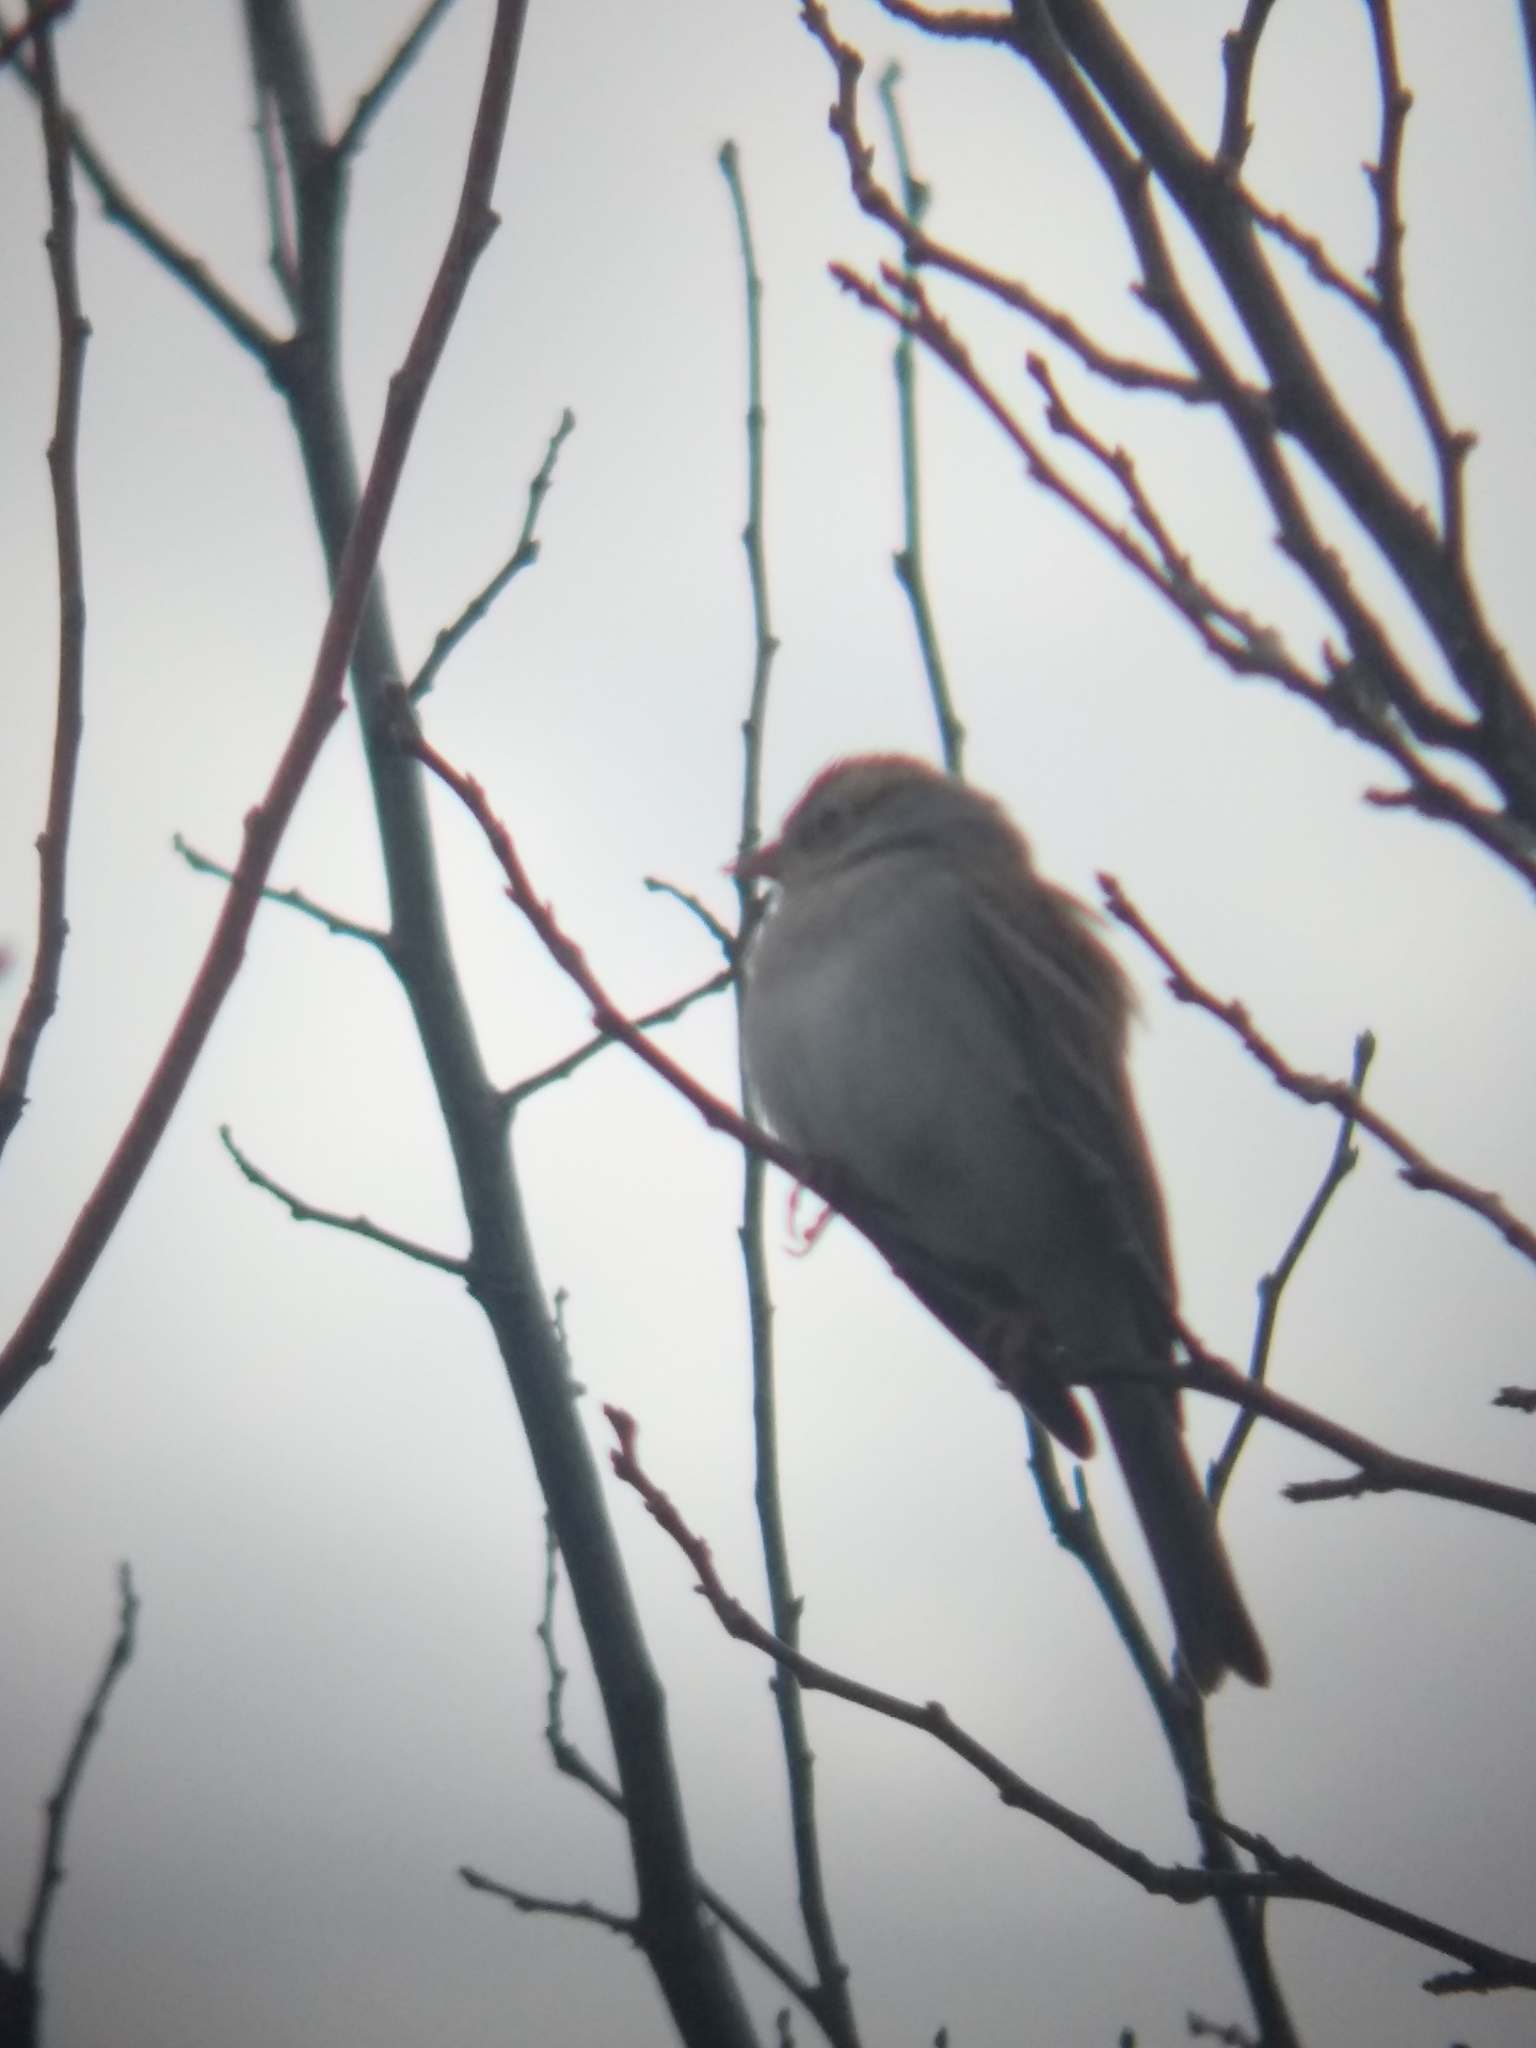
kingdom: Animalia
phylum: Chordata
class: Aves
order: Passeriformes
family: Passerellidae
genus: Spizella
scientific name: Spizella passerina
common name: Chipping sparrow
